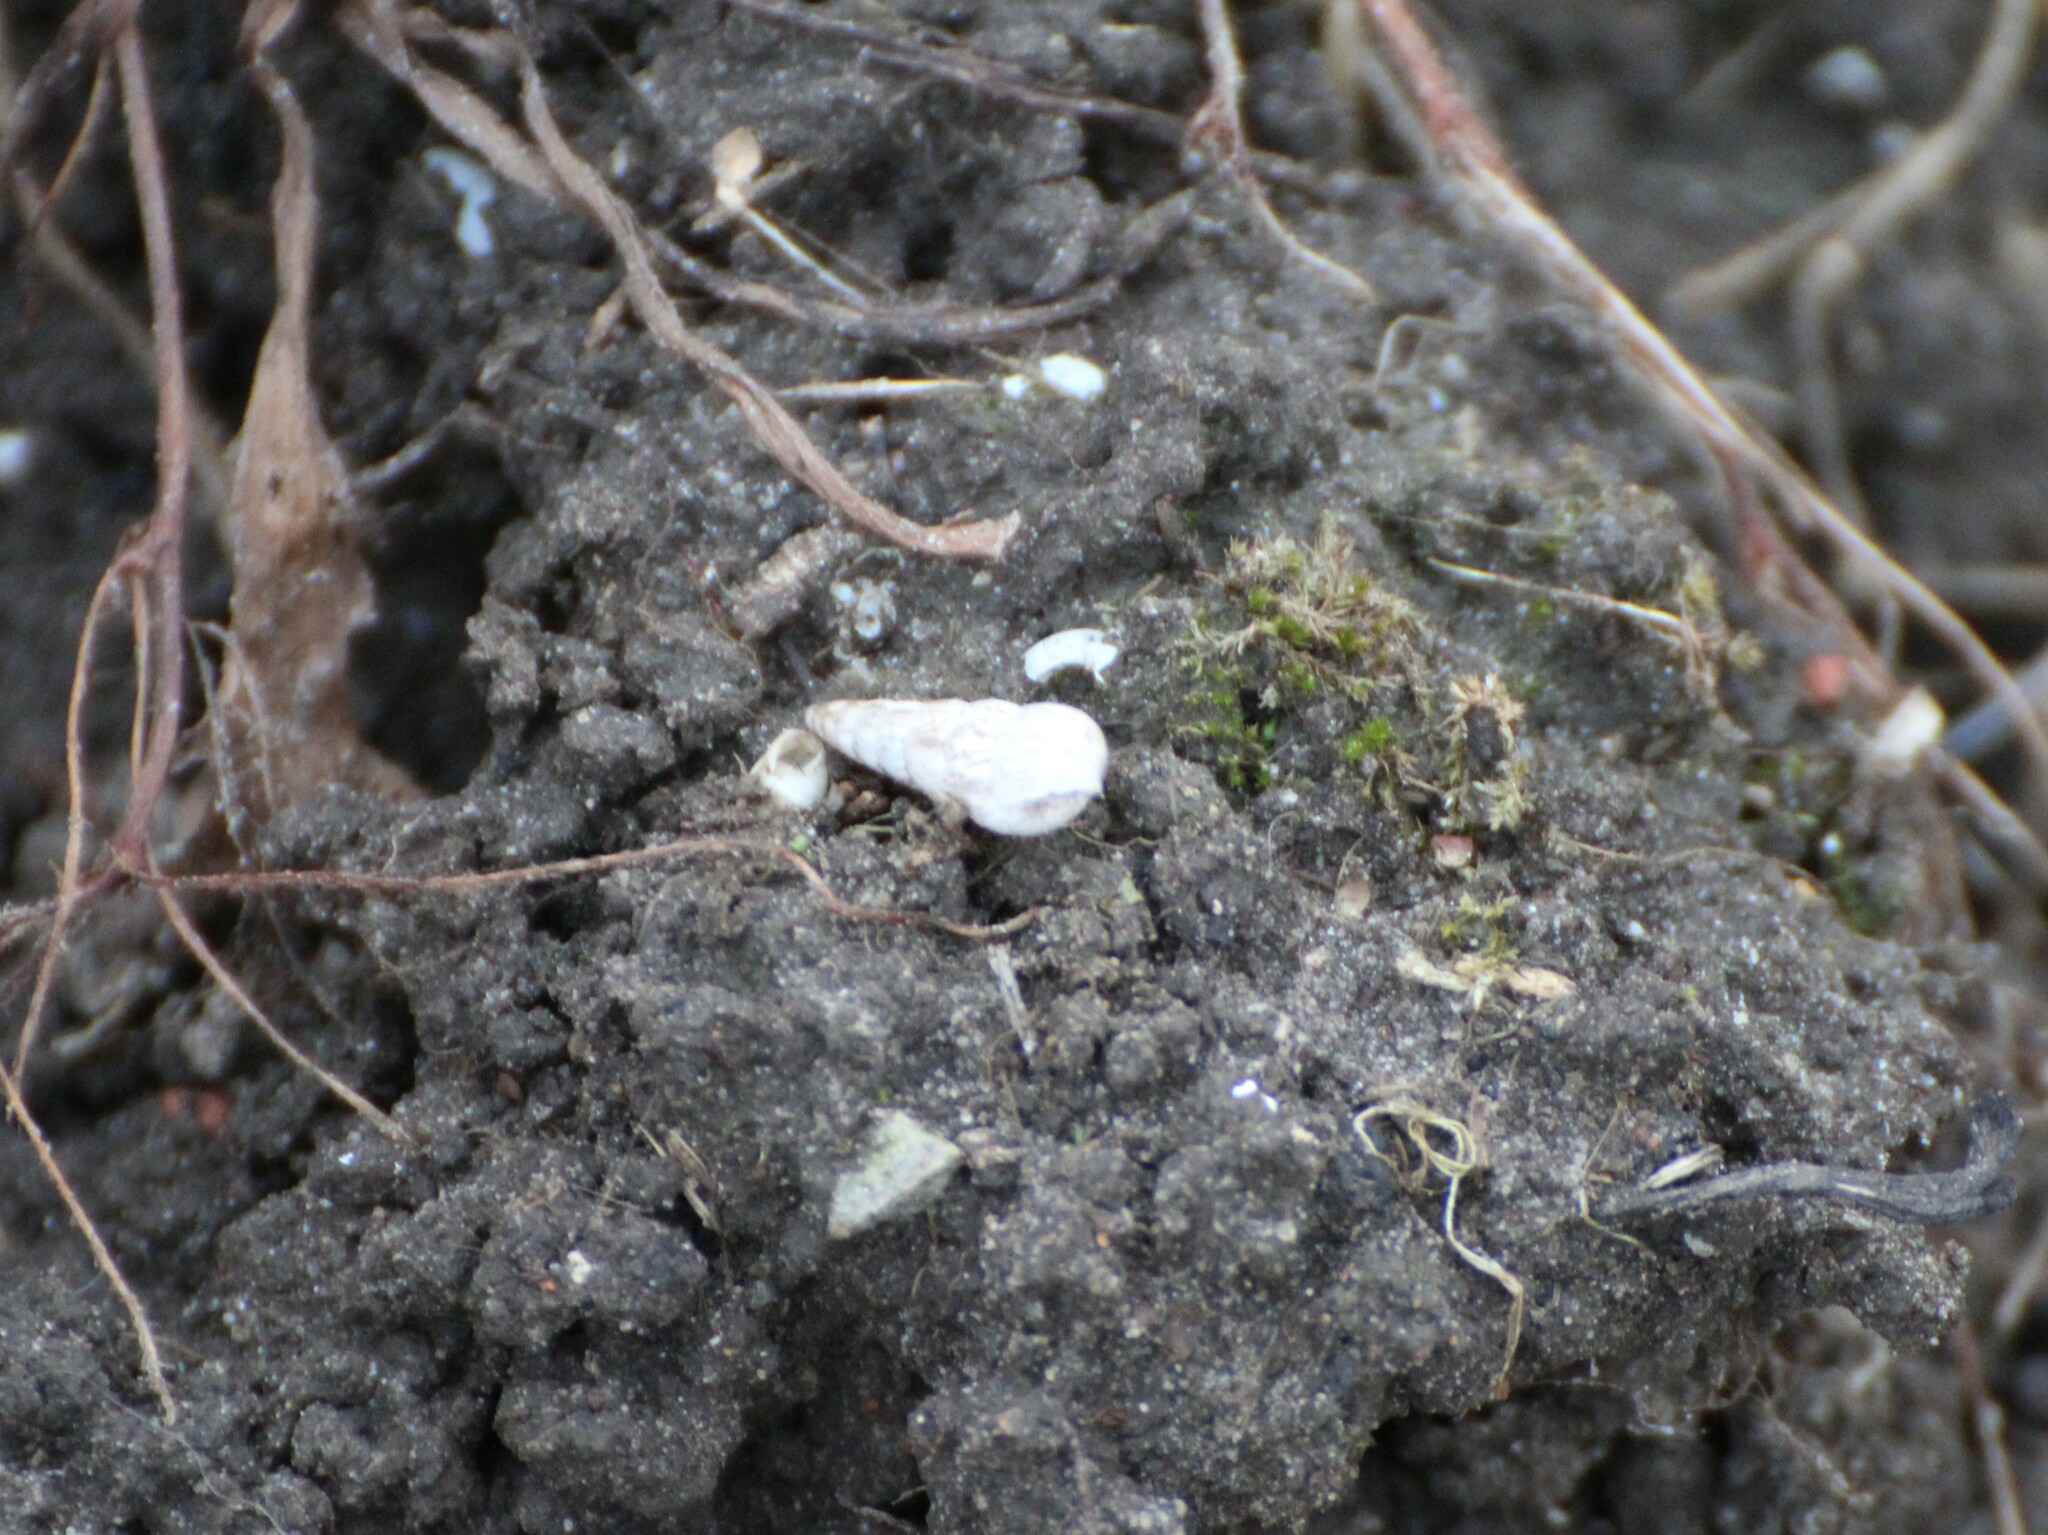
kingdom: Animalia
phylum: Mollusca
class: Gastropoda
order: Stylommatophora
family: Geomitridae
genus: Cochlicella
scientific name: Cochlicella acuta
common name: Pointed snail
